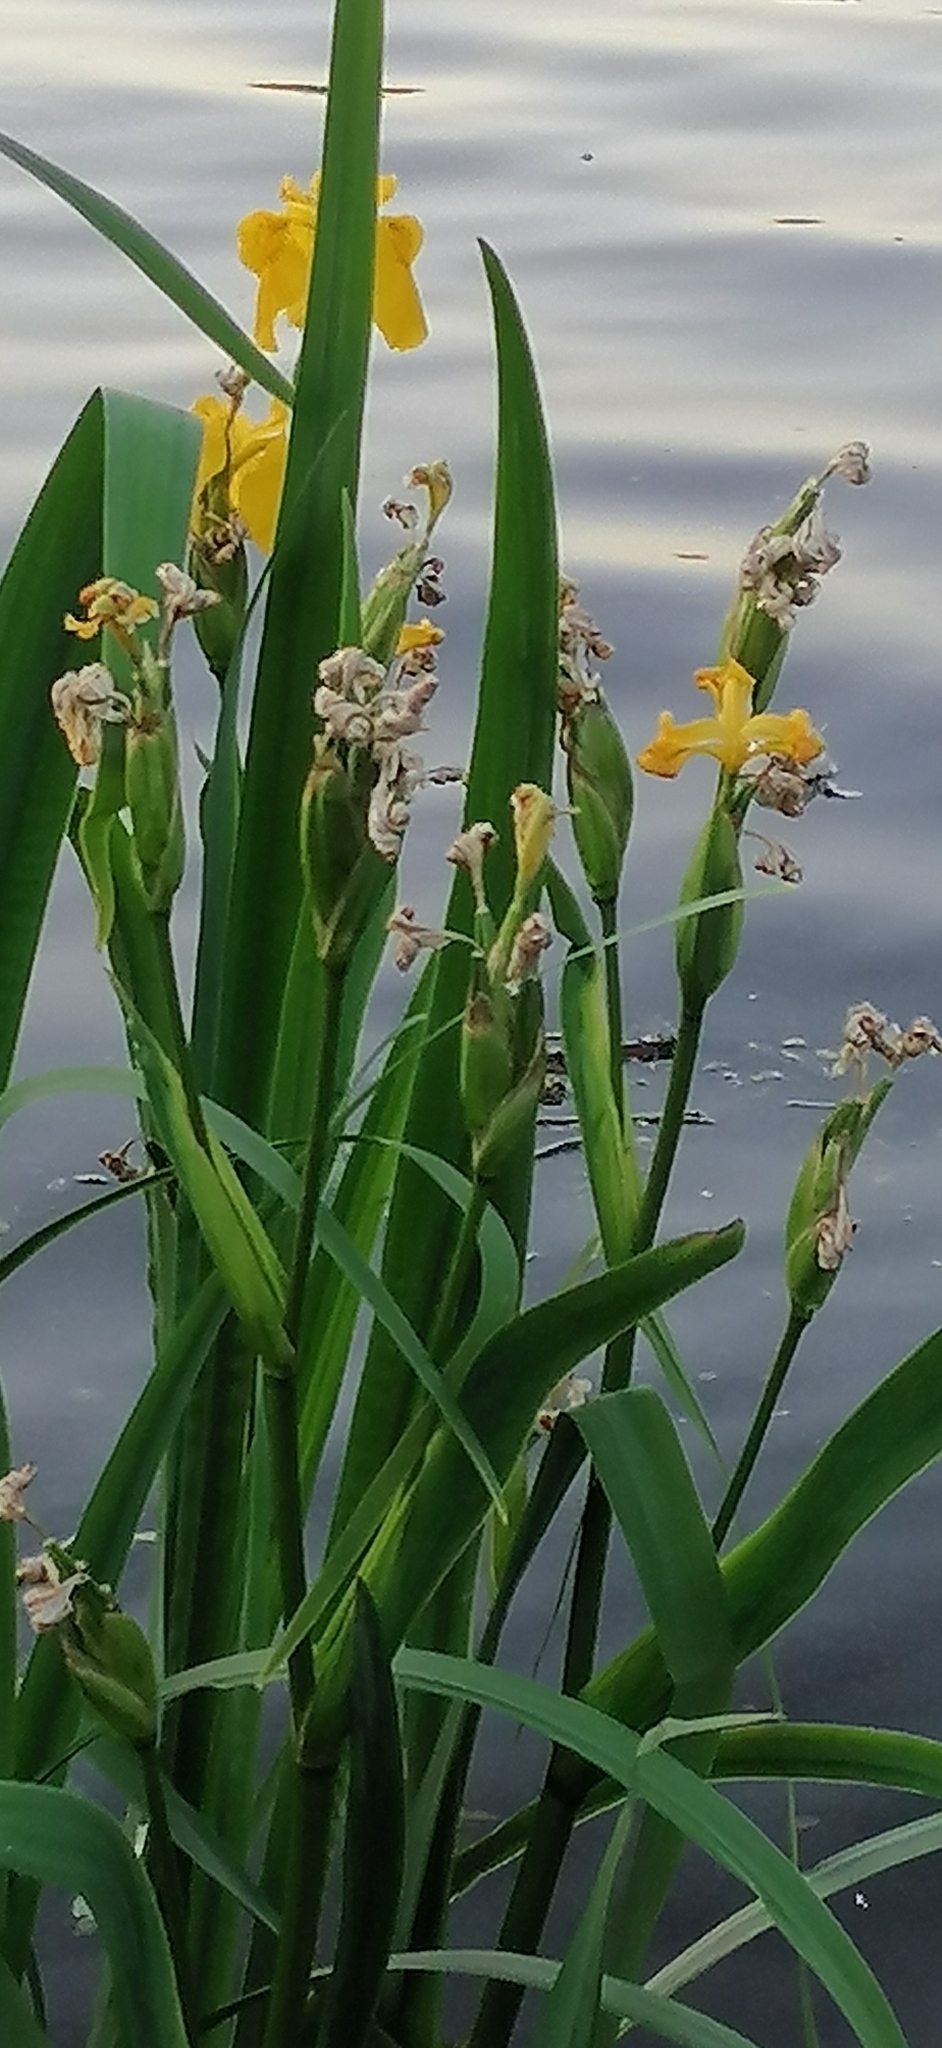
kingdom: Plantae
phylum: Tracheophyta
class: Liliopsida
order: Asparagales
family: Iridaceae
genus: Iris
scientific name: Iris pseudacorus
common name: Yellow flag
